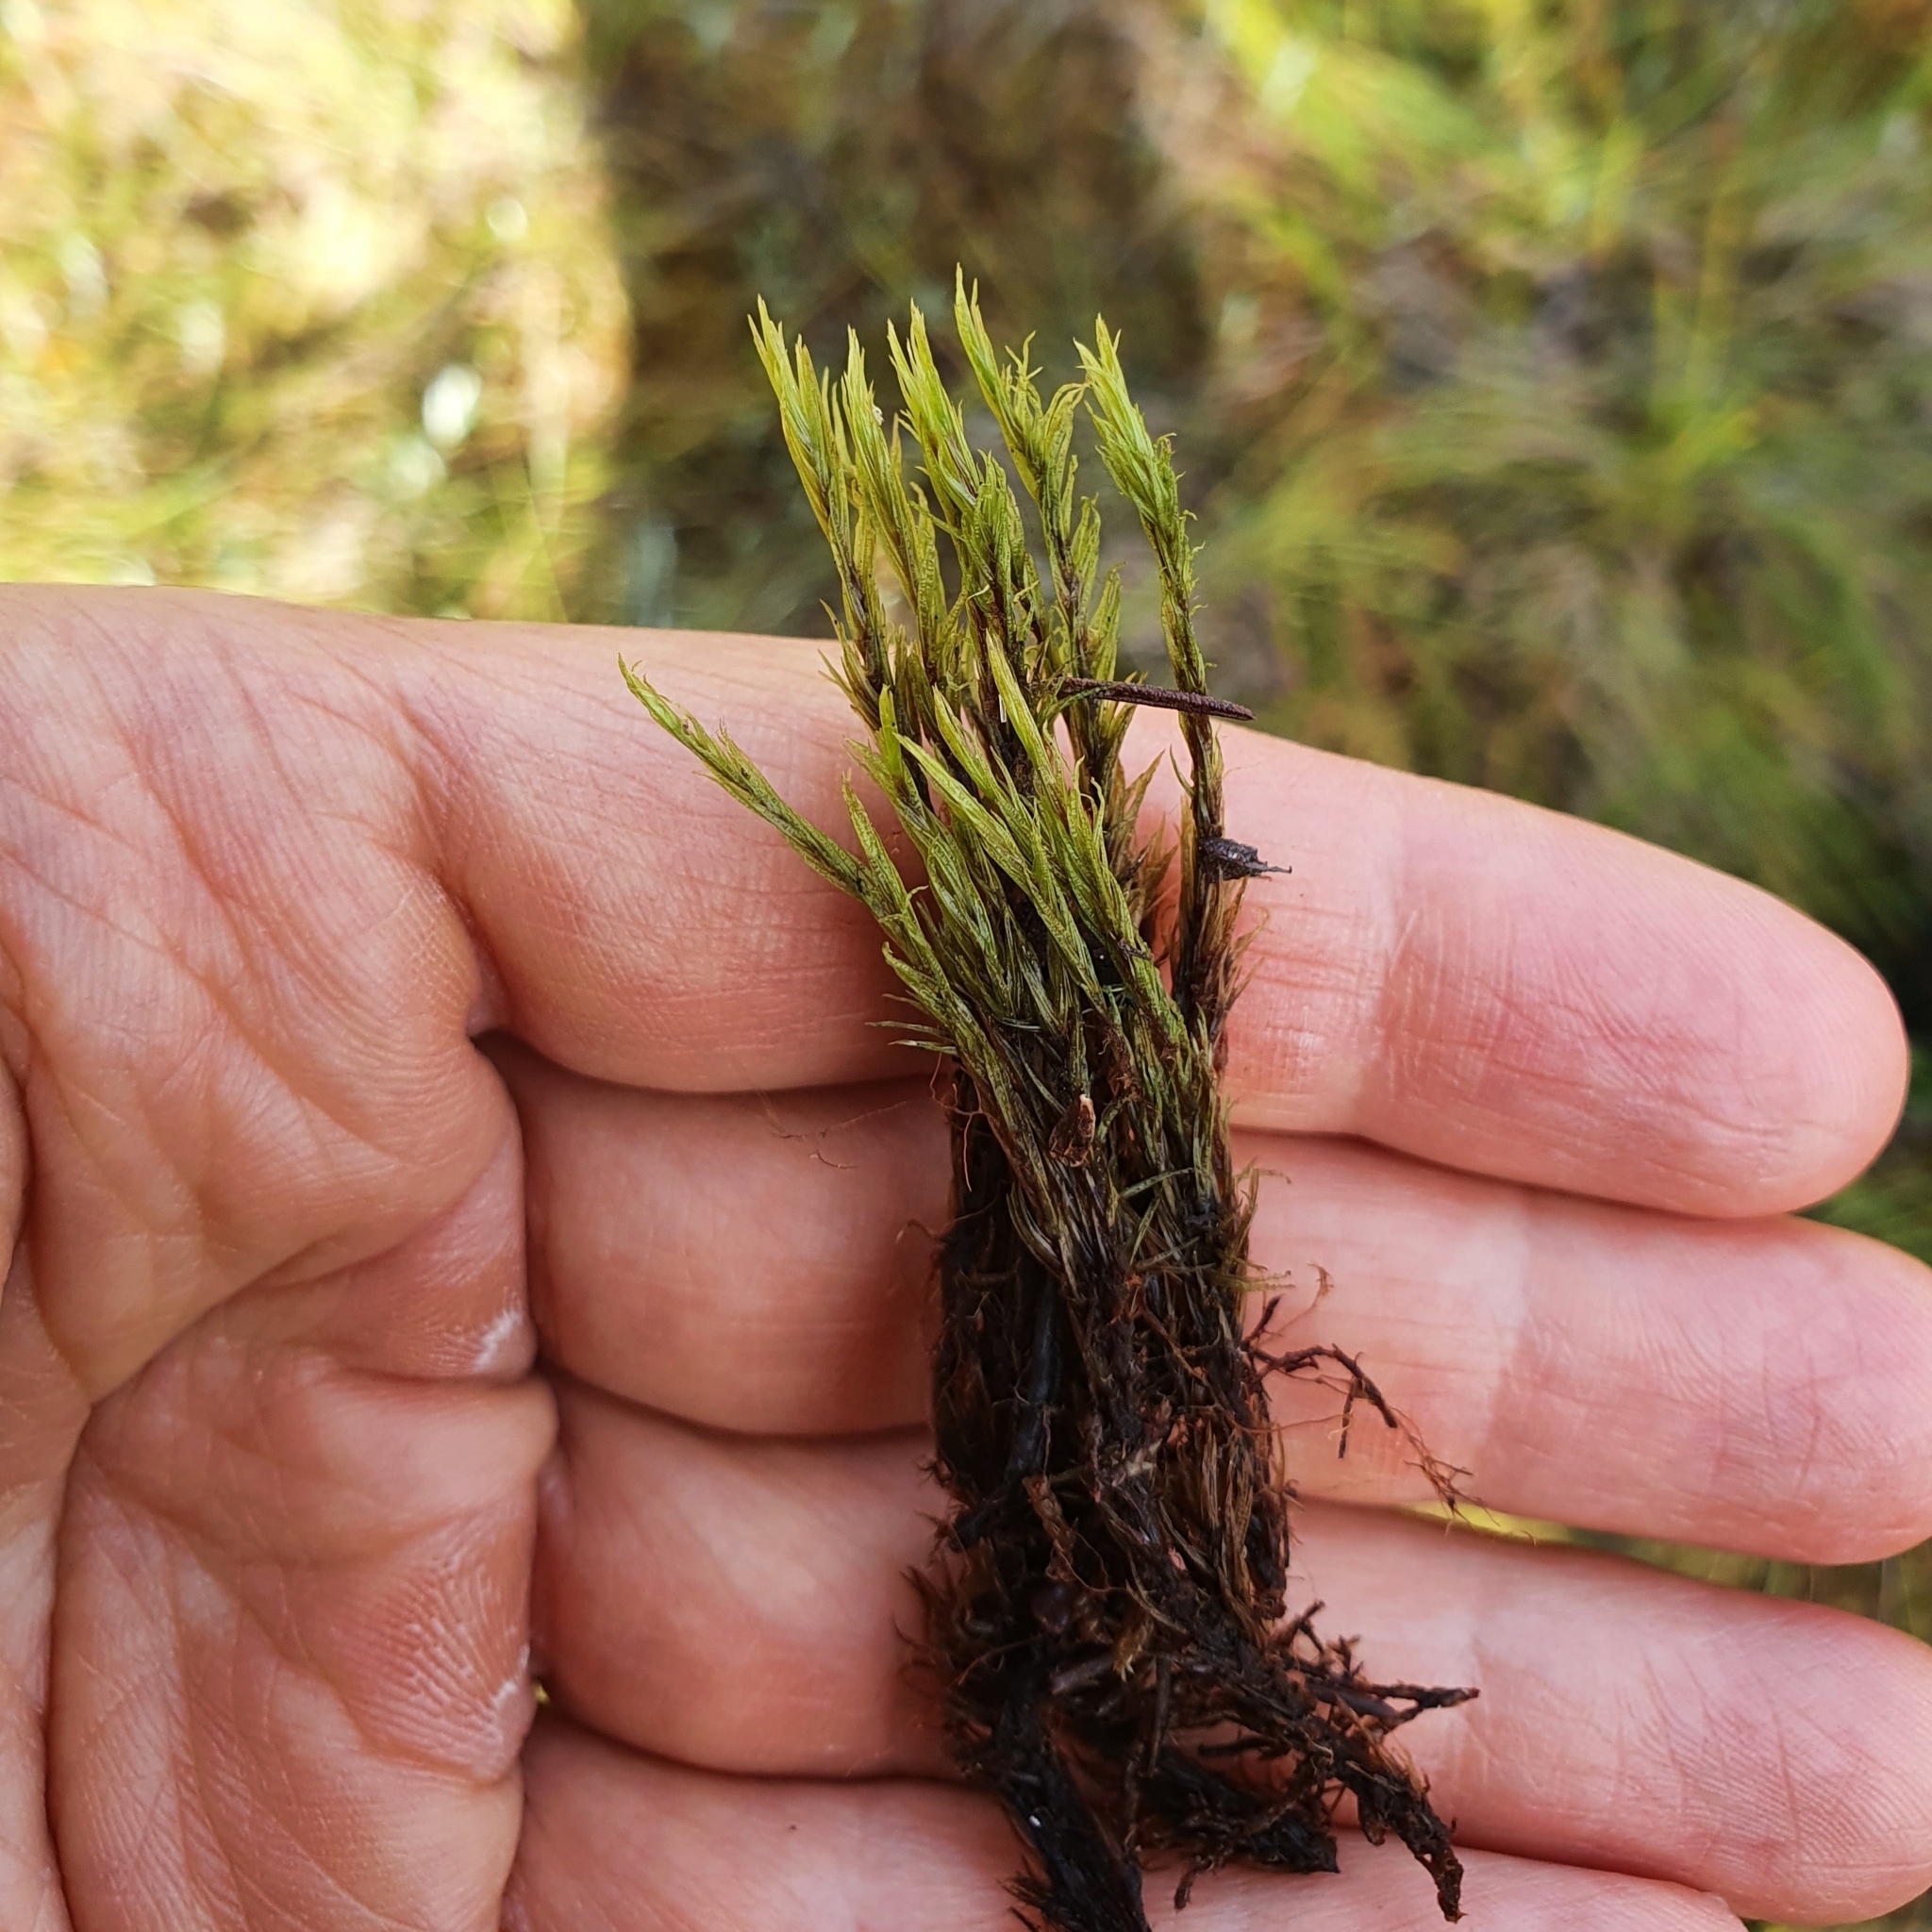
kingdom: Plantae
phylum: Bryophyta
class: Bryopsida
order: Dicranales
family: Dicranaceae
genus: Dicranum
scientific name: Dicranum undulatum
